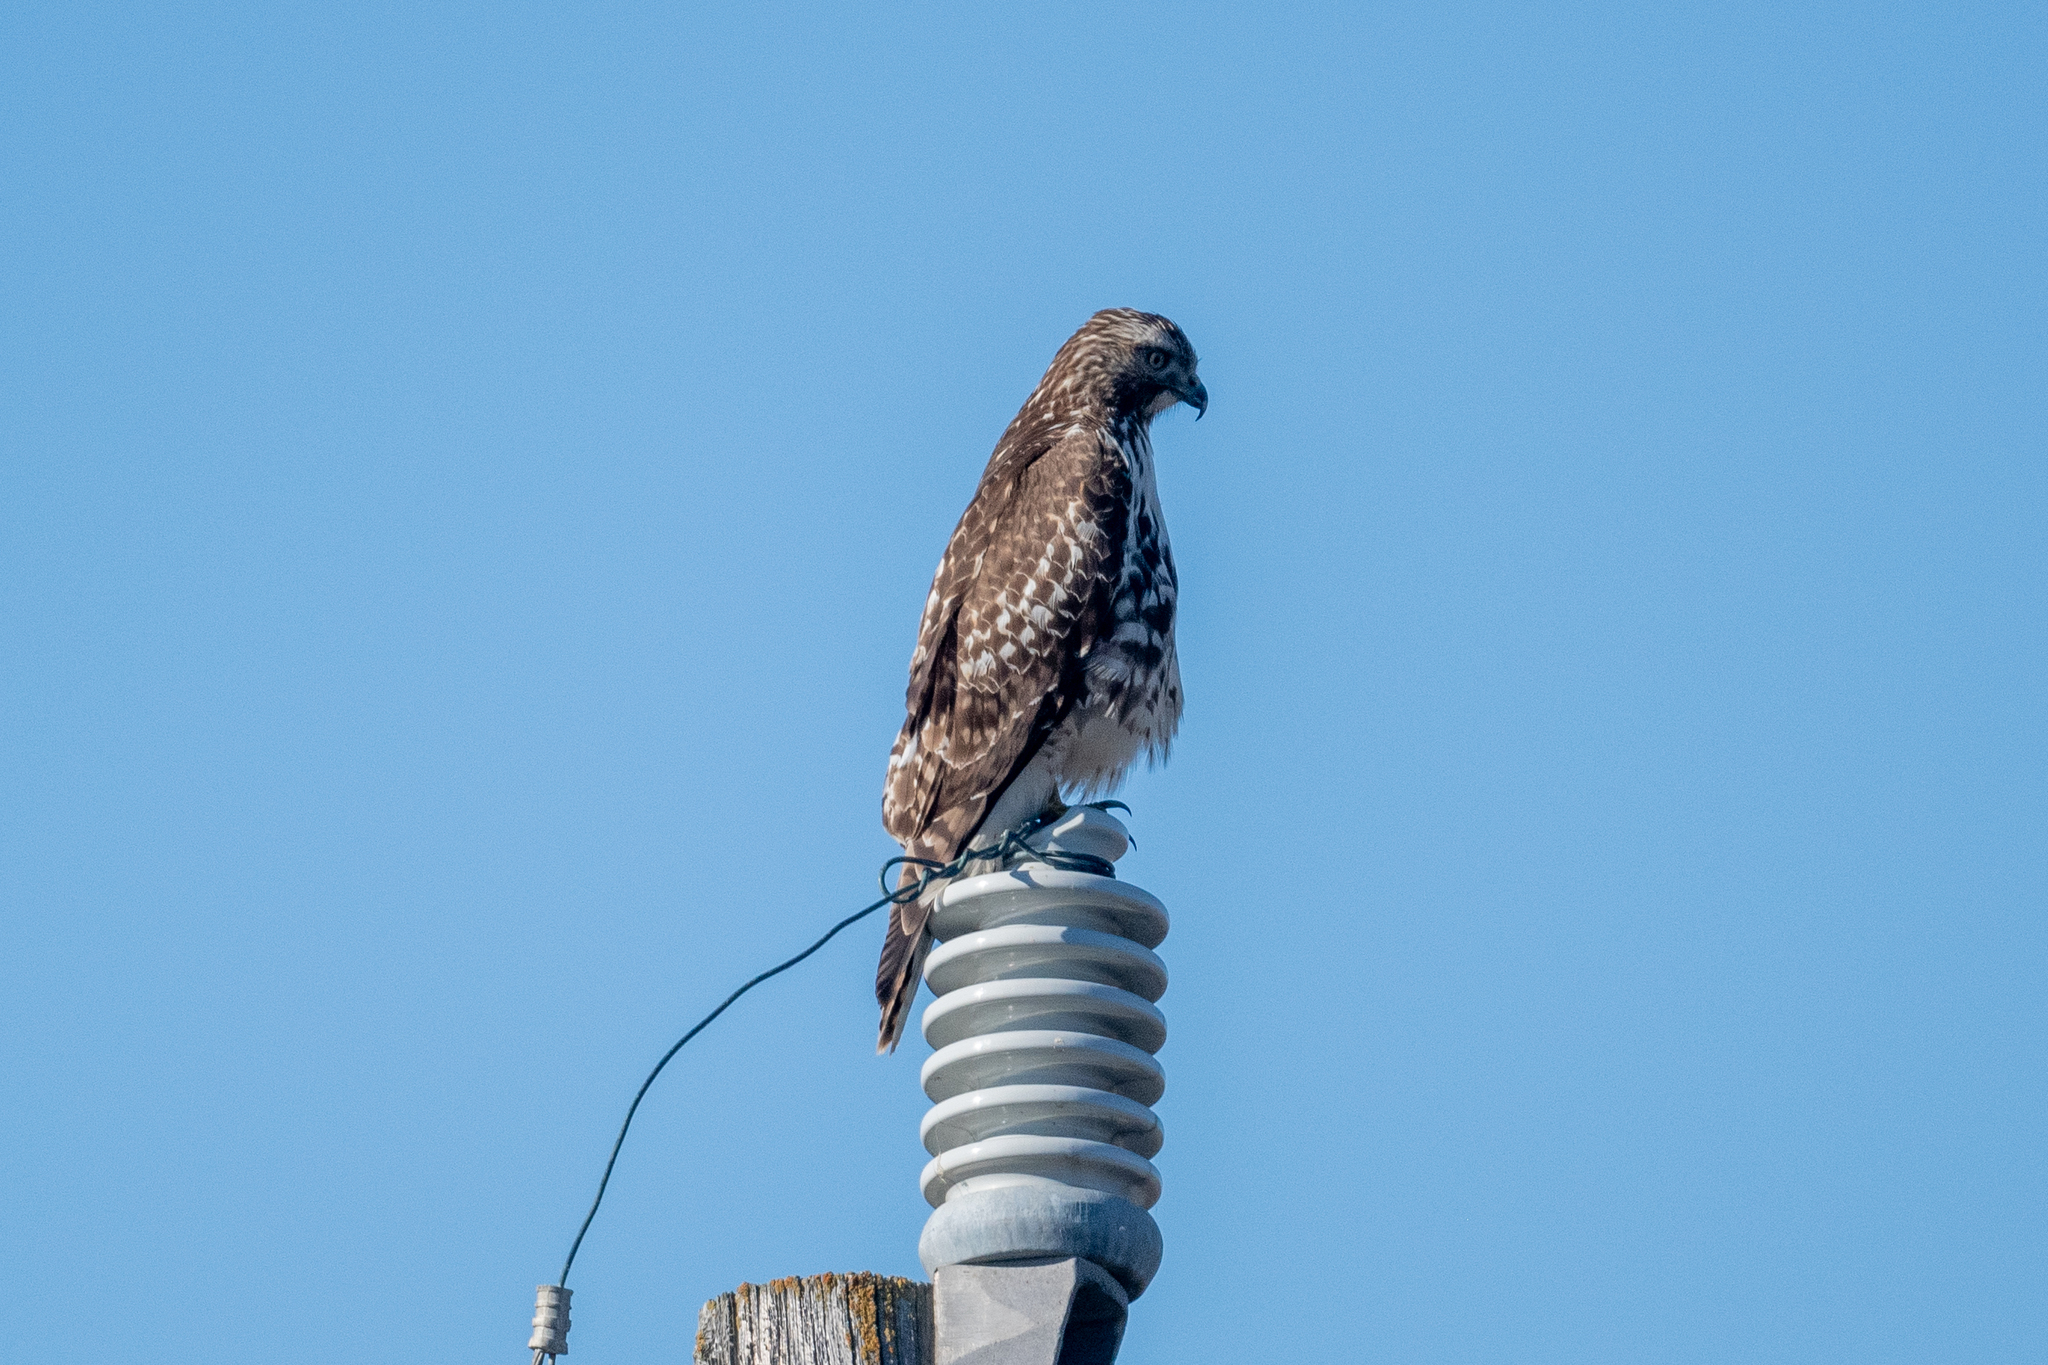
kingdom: Animalia
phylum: Chordata
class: Aves
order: Accipitriformes
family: Accipitridae
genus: Buteo
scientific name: Buteo jamaicensis
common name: Red-tailed hawk
